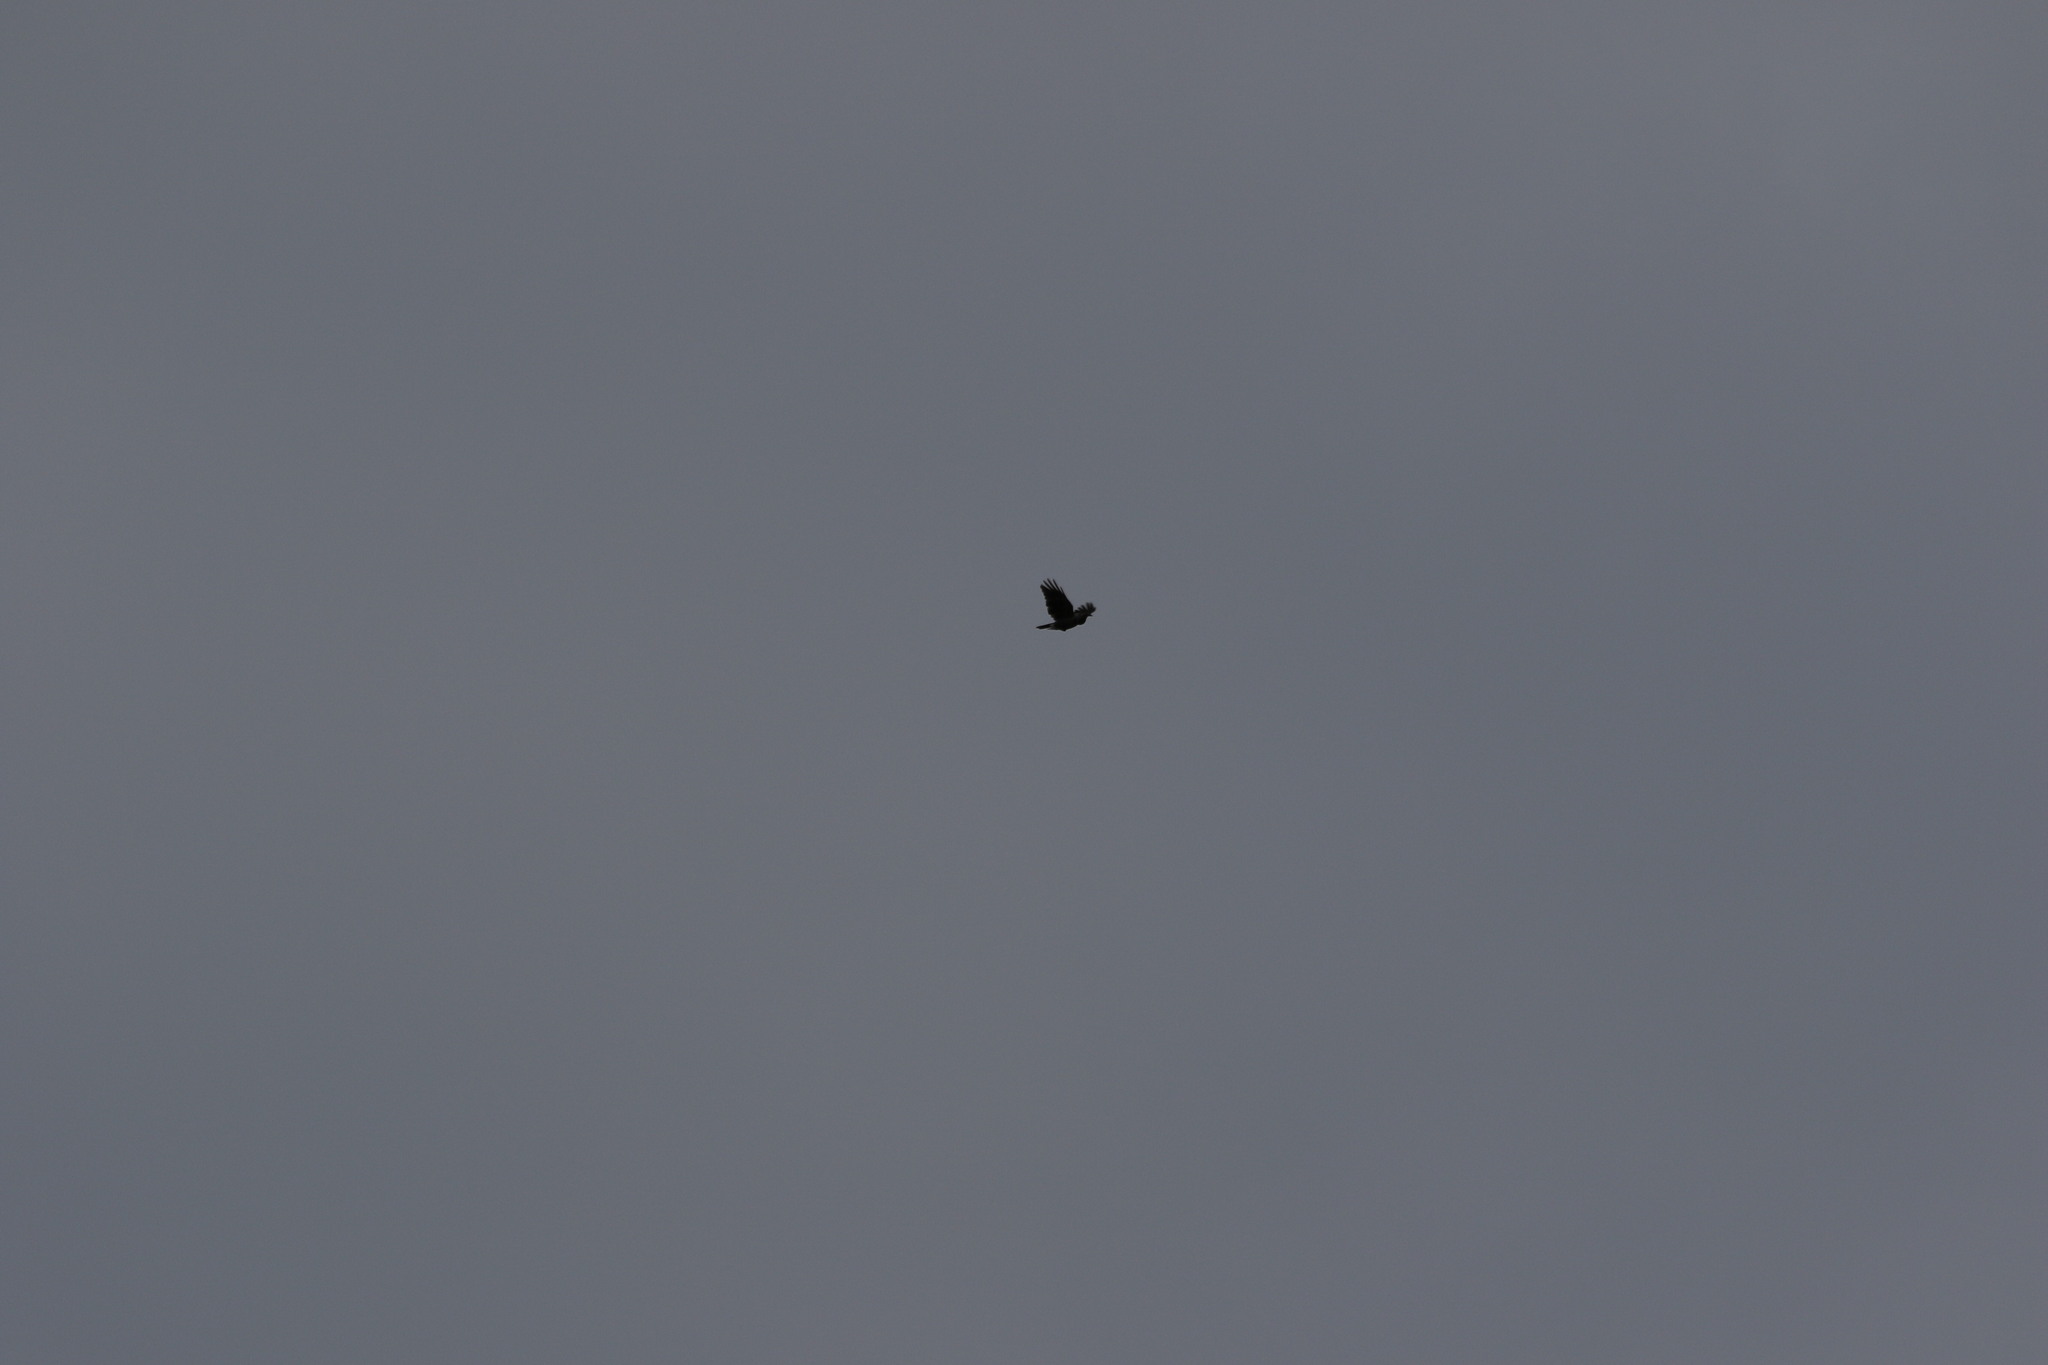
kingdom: Animalia
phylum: Chordata
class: Aves
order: Passeriformes
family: Corvidae
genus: Nucifraga
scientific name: Nucifraga caryocatactes
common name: Spotted nutcracker
